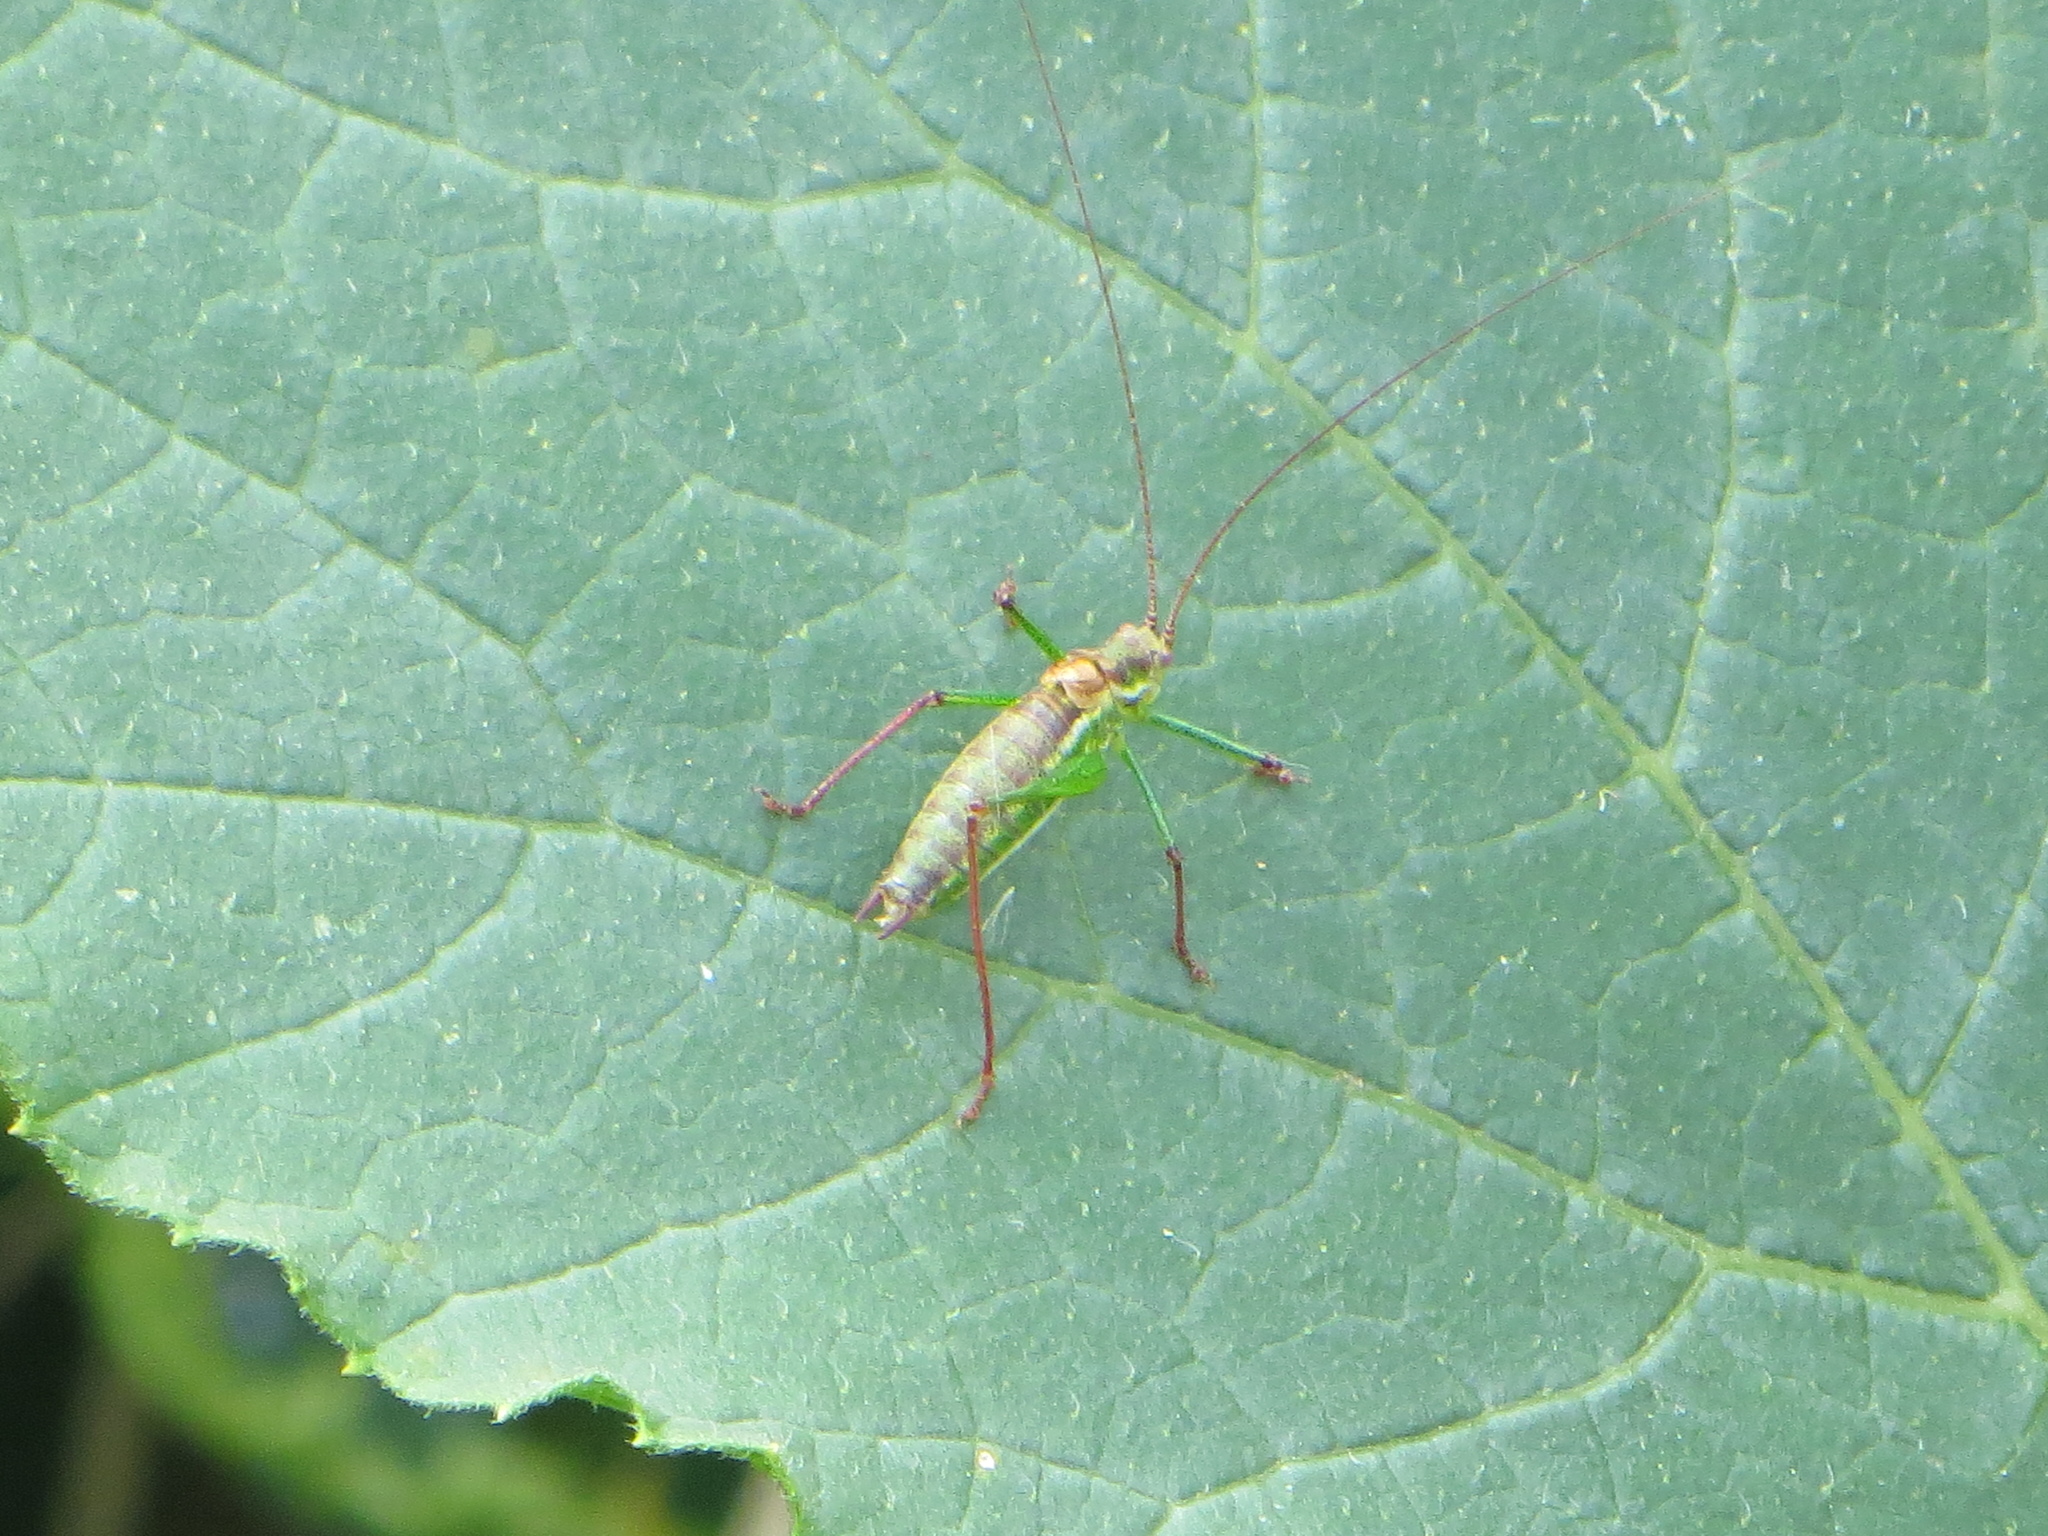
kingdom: Animalia
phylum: Arthropoda
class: Insecta
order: Orthoptera
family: Tettigoniidae
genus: Leptophyes
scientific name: Leptophyes albovittata
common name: Striped bush-cricket
